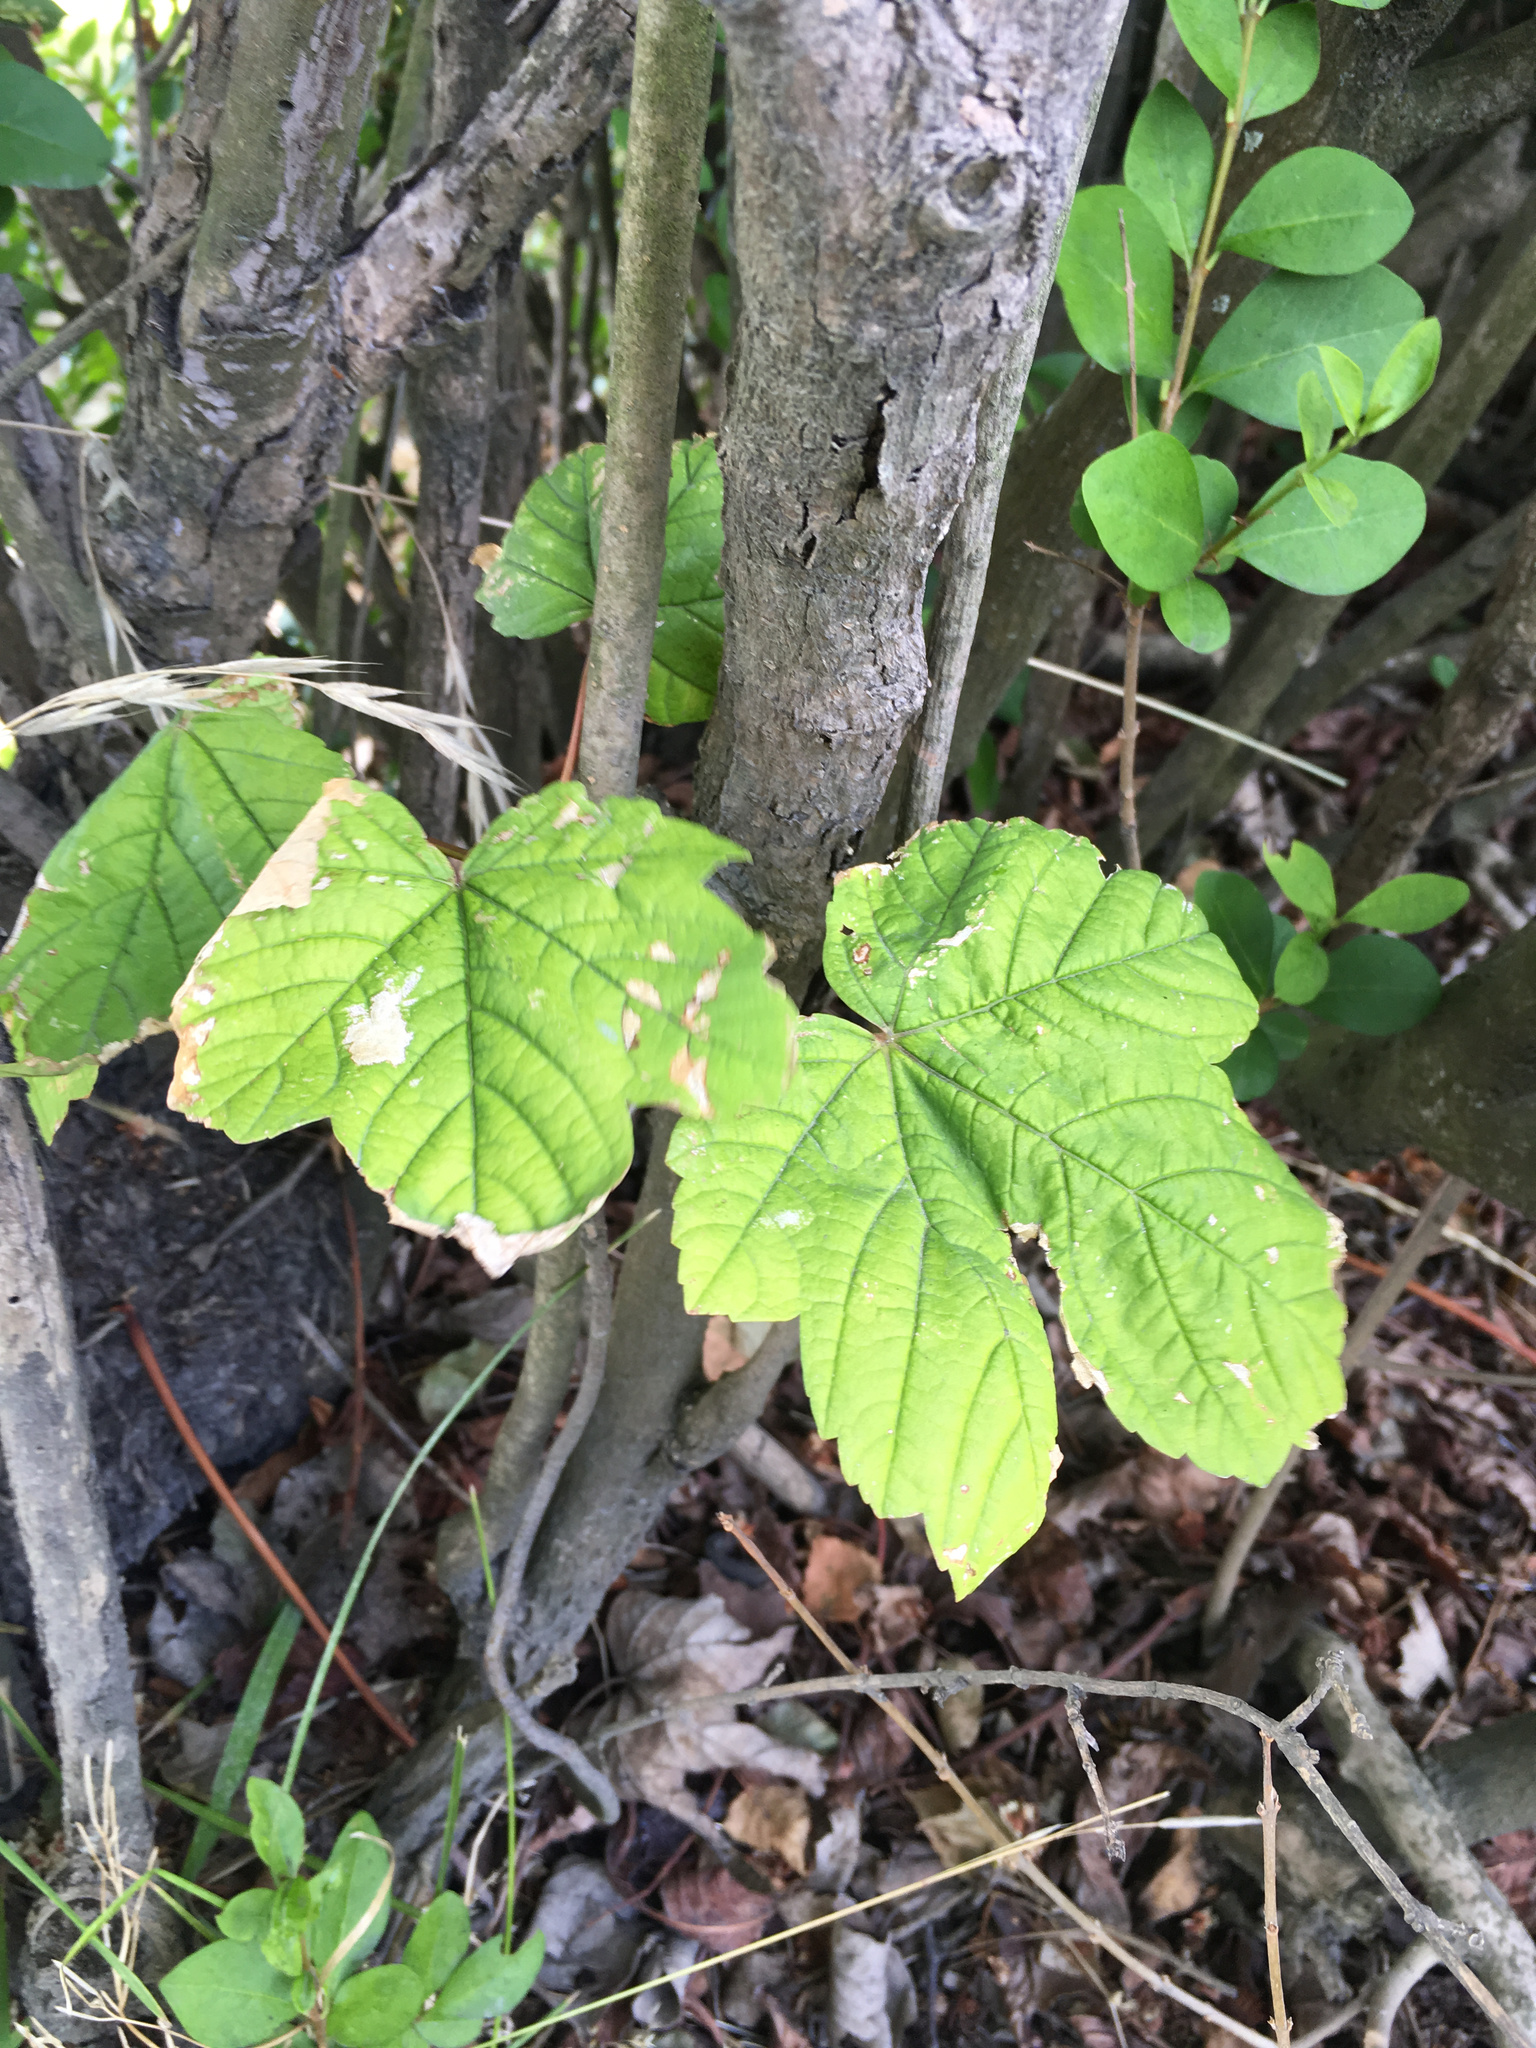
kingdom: Plantae
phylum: Tracheophyta
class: Magnoliopsida
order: Sapindales
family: Sapindaceae
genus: Acer
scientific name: Acer pseudoplatanus
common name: Sycamore
